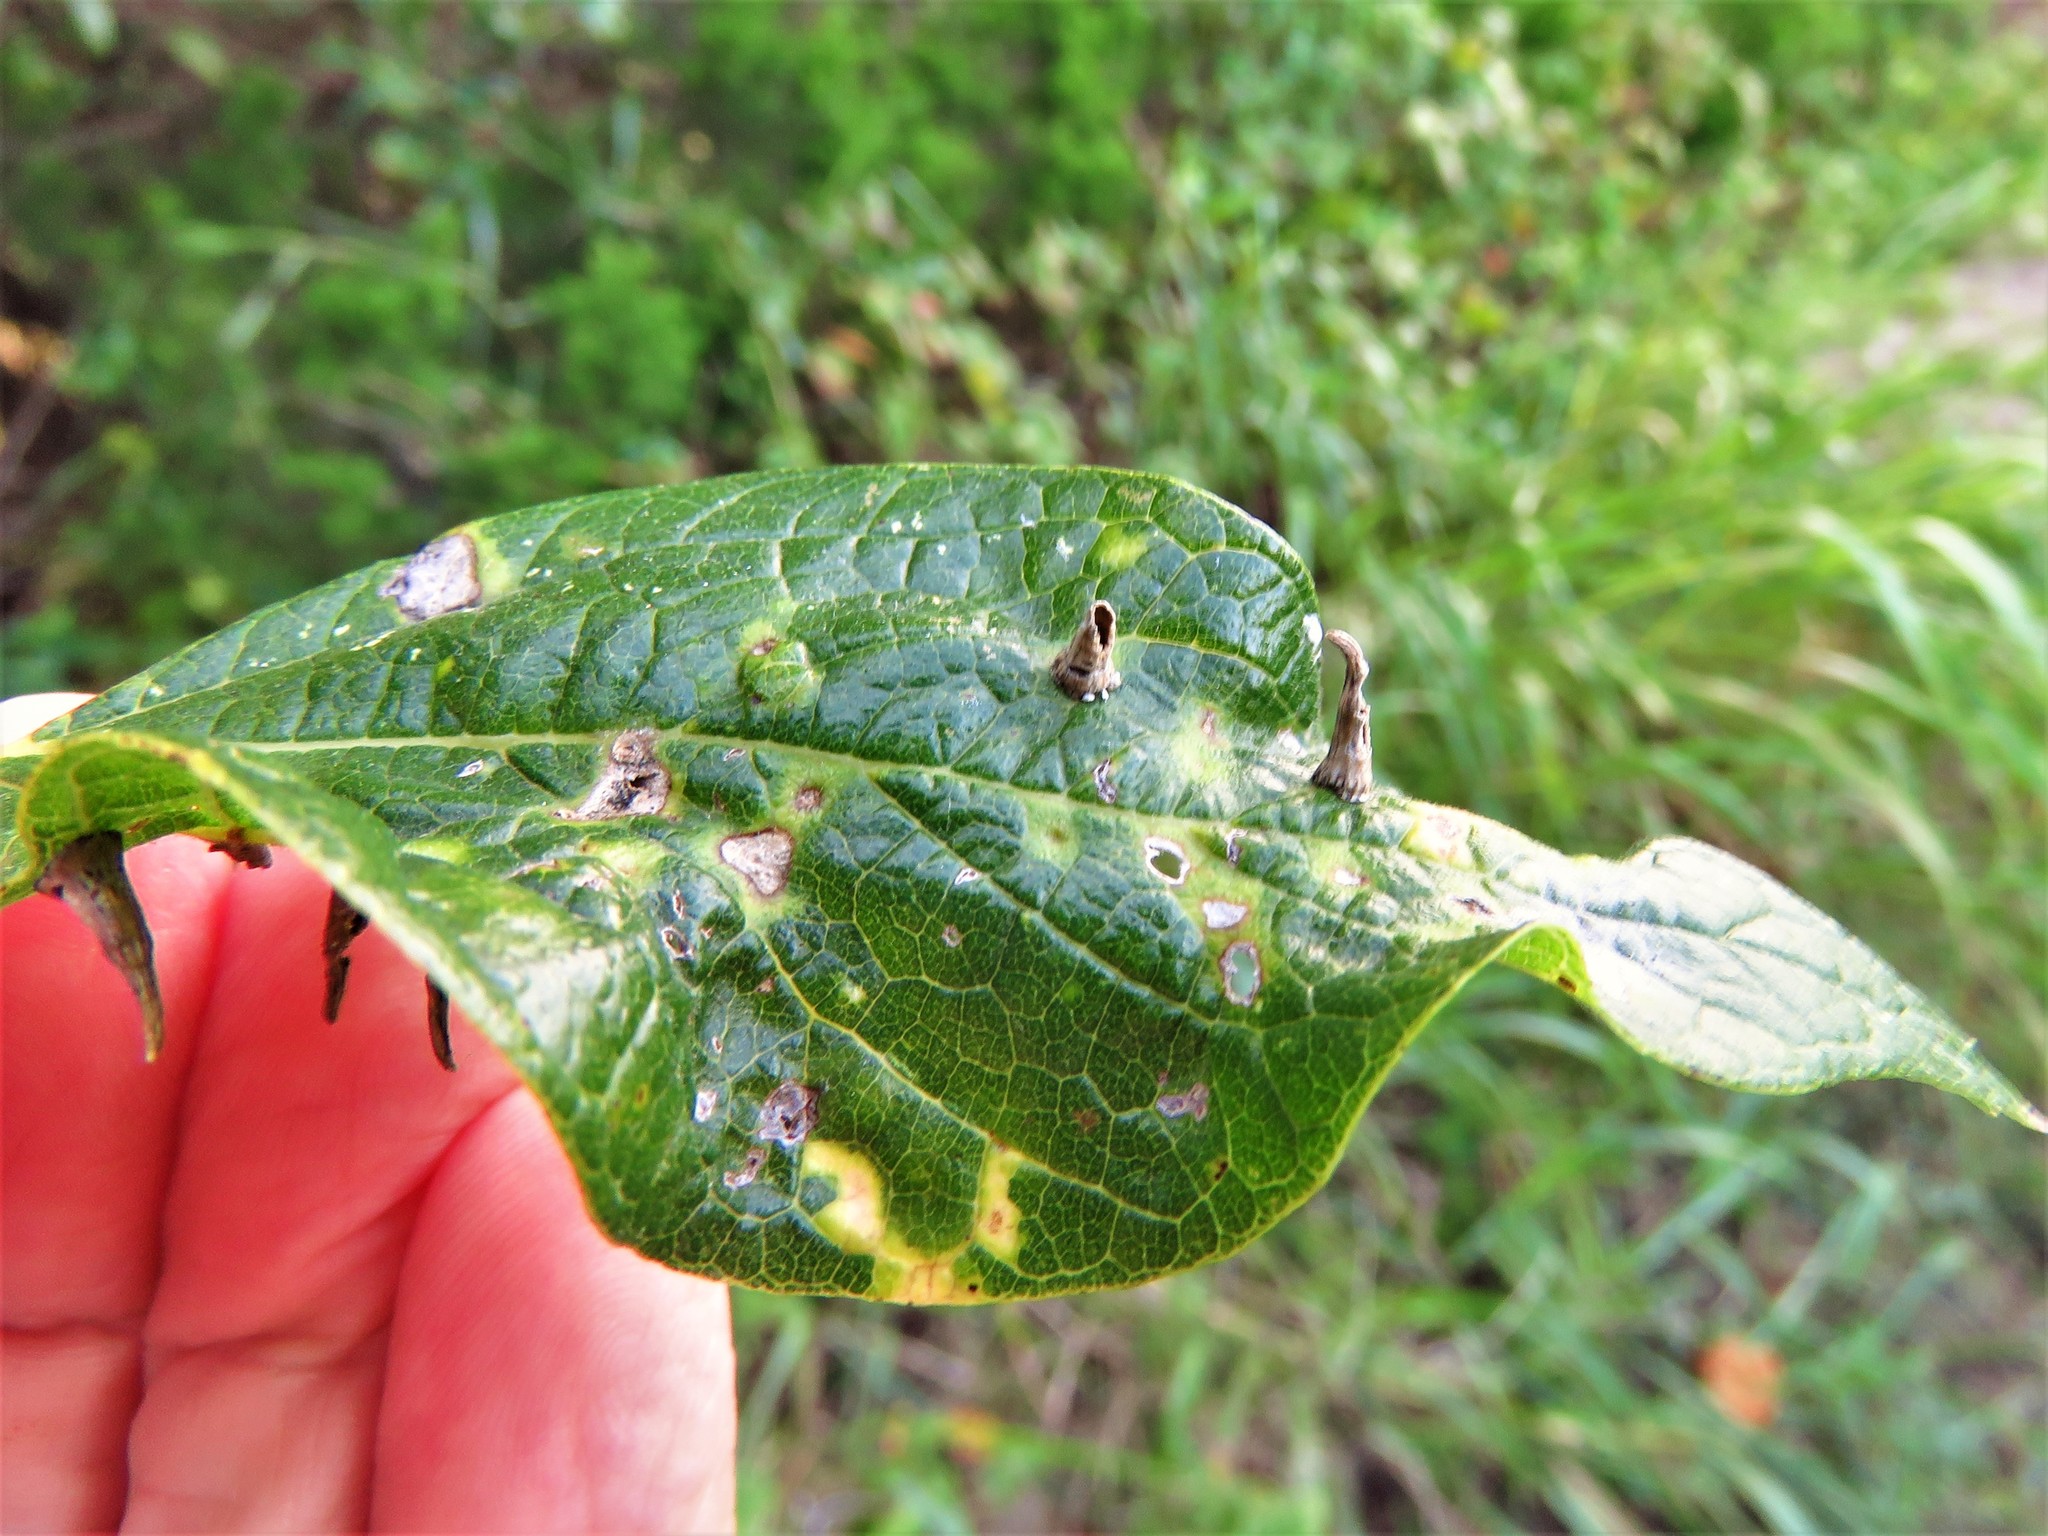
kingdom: Animalia
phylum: Arthropoda
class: Insecta
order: Diptera
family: Cecidomyiidae
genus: Celticecis
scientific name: Celticecis subulata
